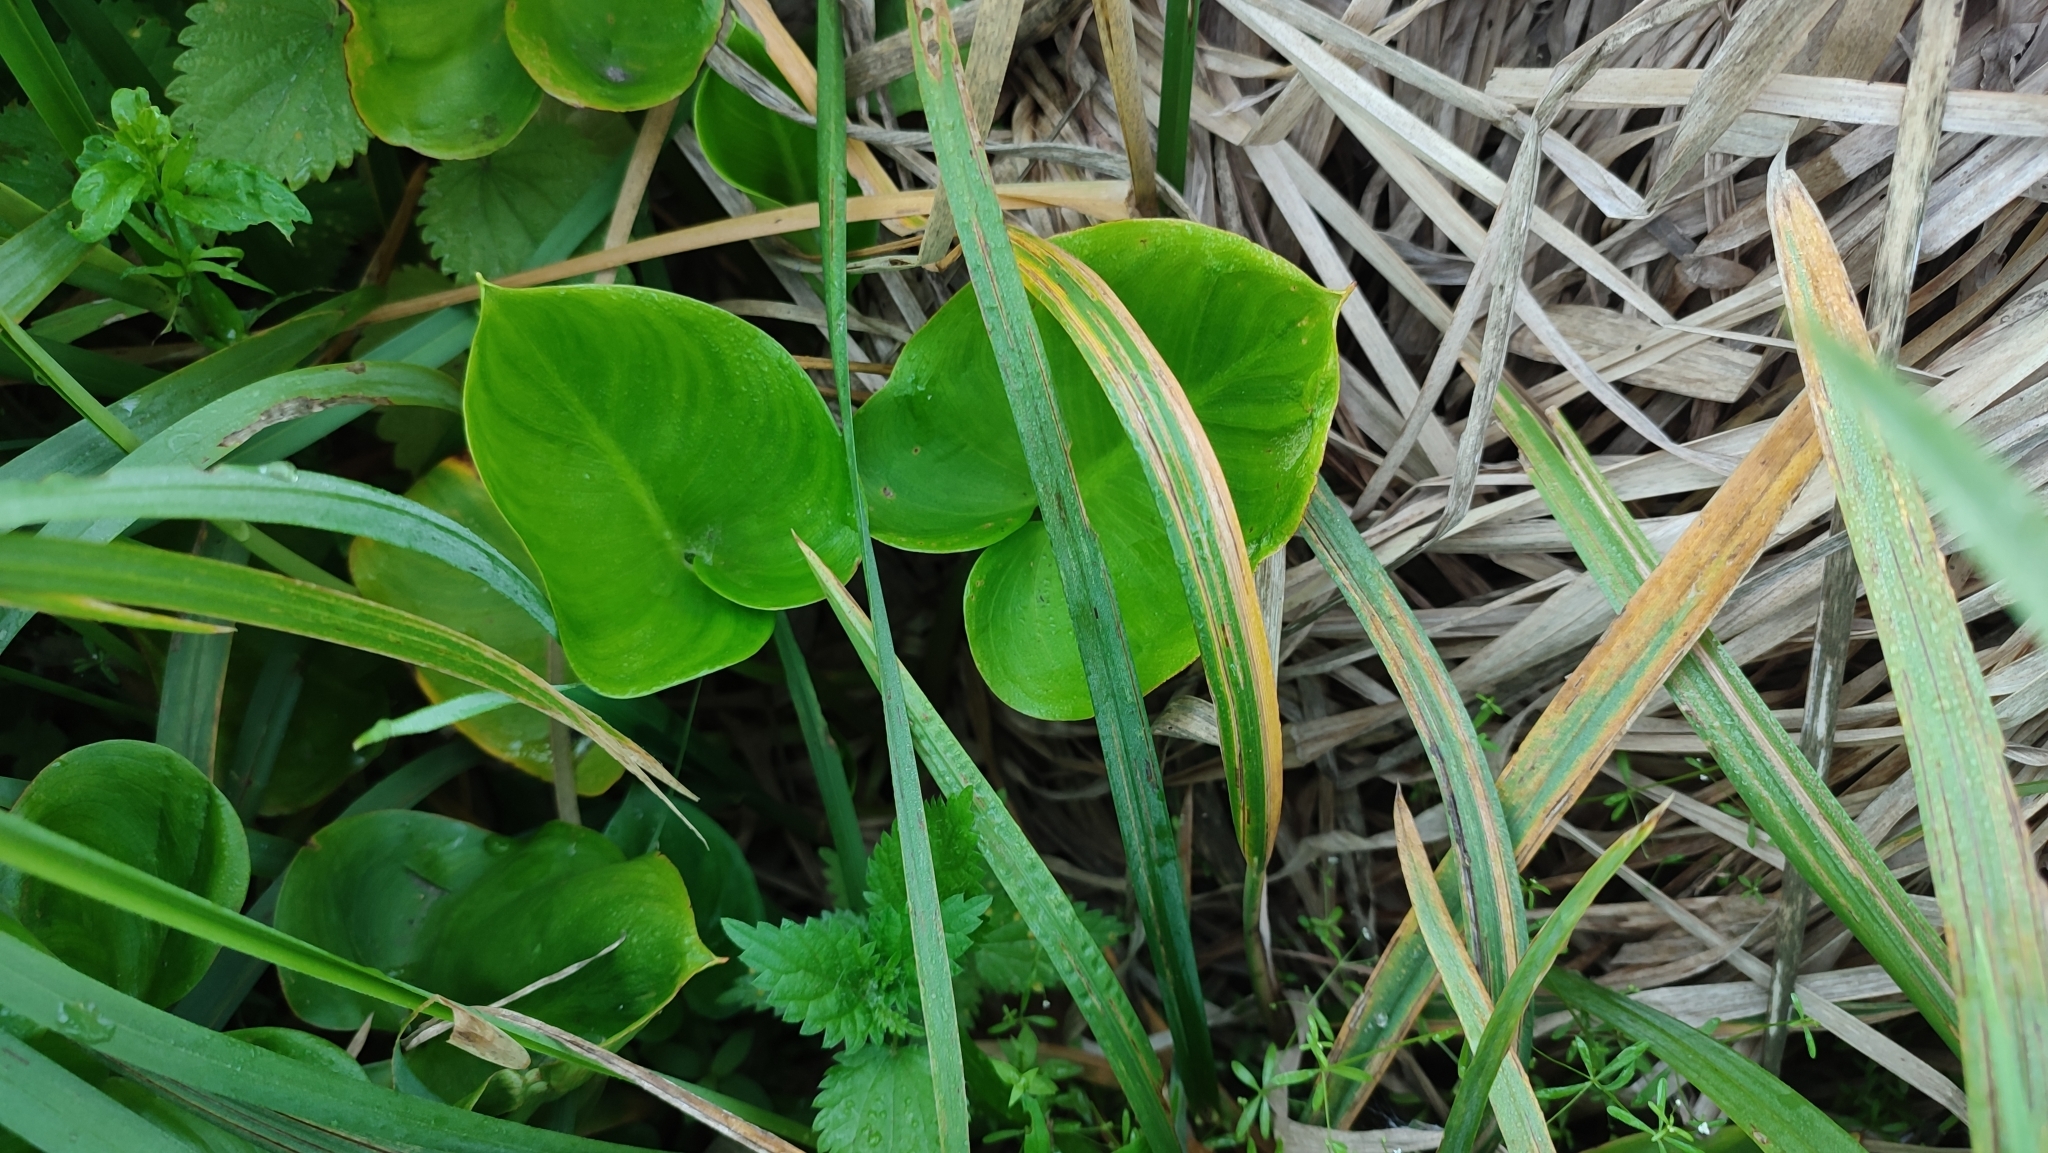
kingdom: Plantae
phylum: Tracheophyta
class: Liliopsida
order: Alismatales
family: Araceae
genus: Calla
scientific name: Calla palustris
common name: Bog arum
